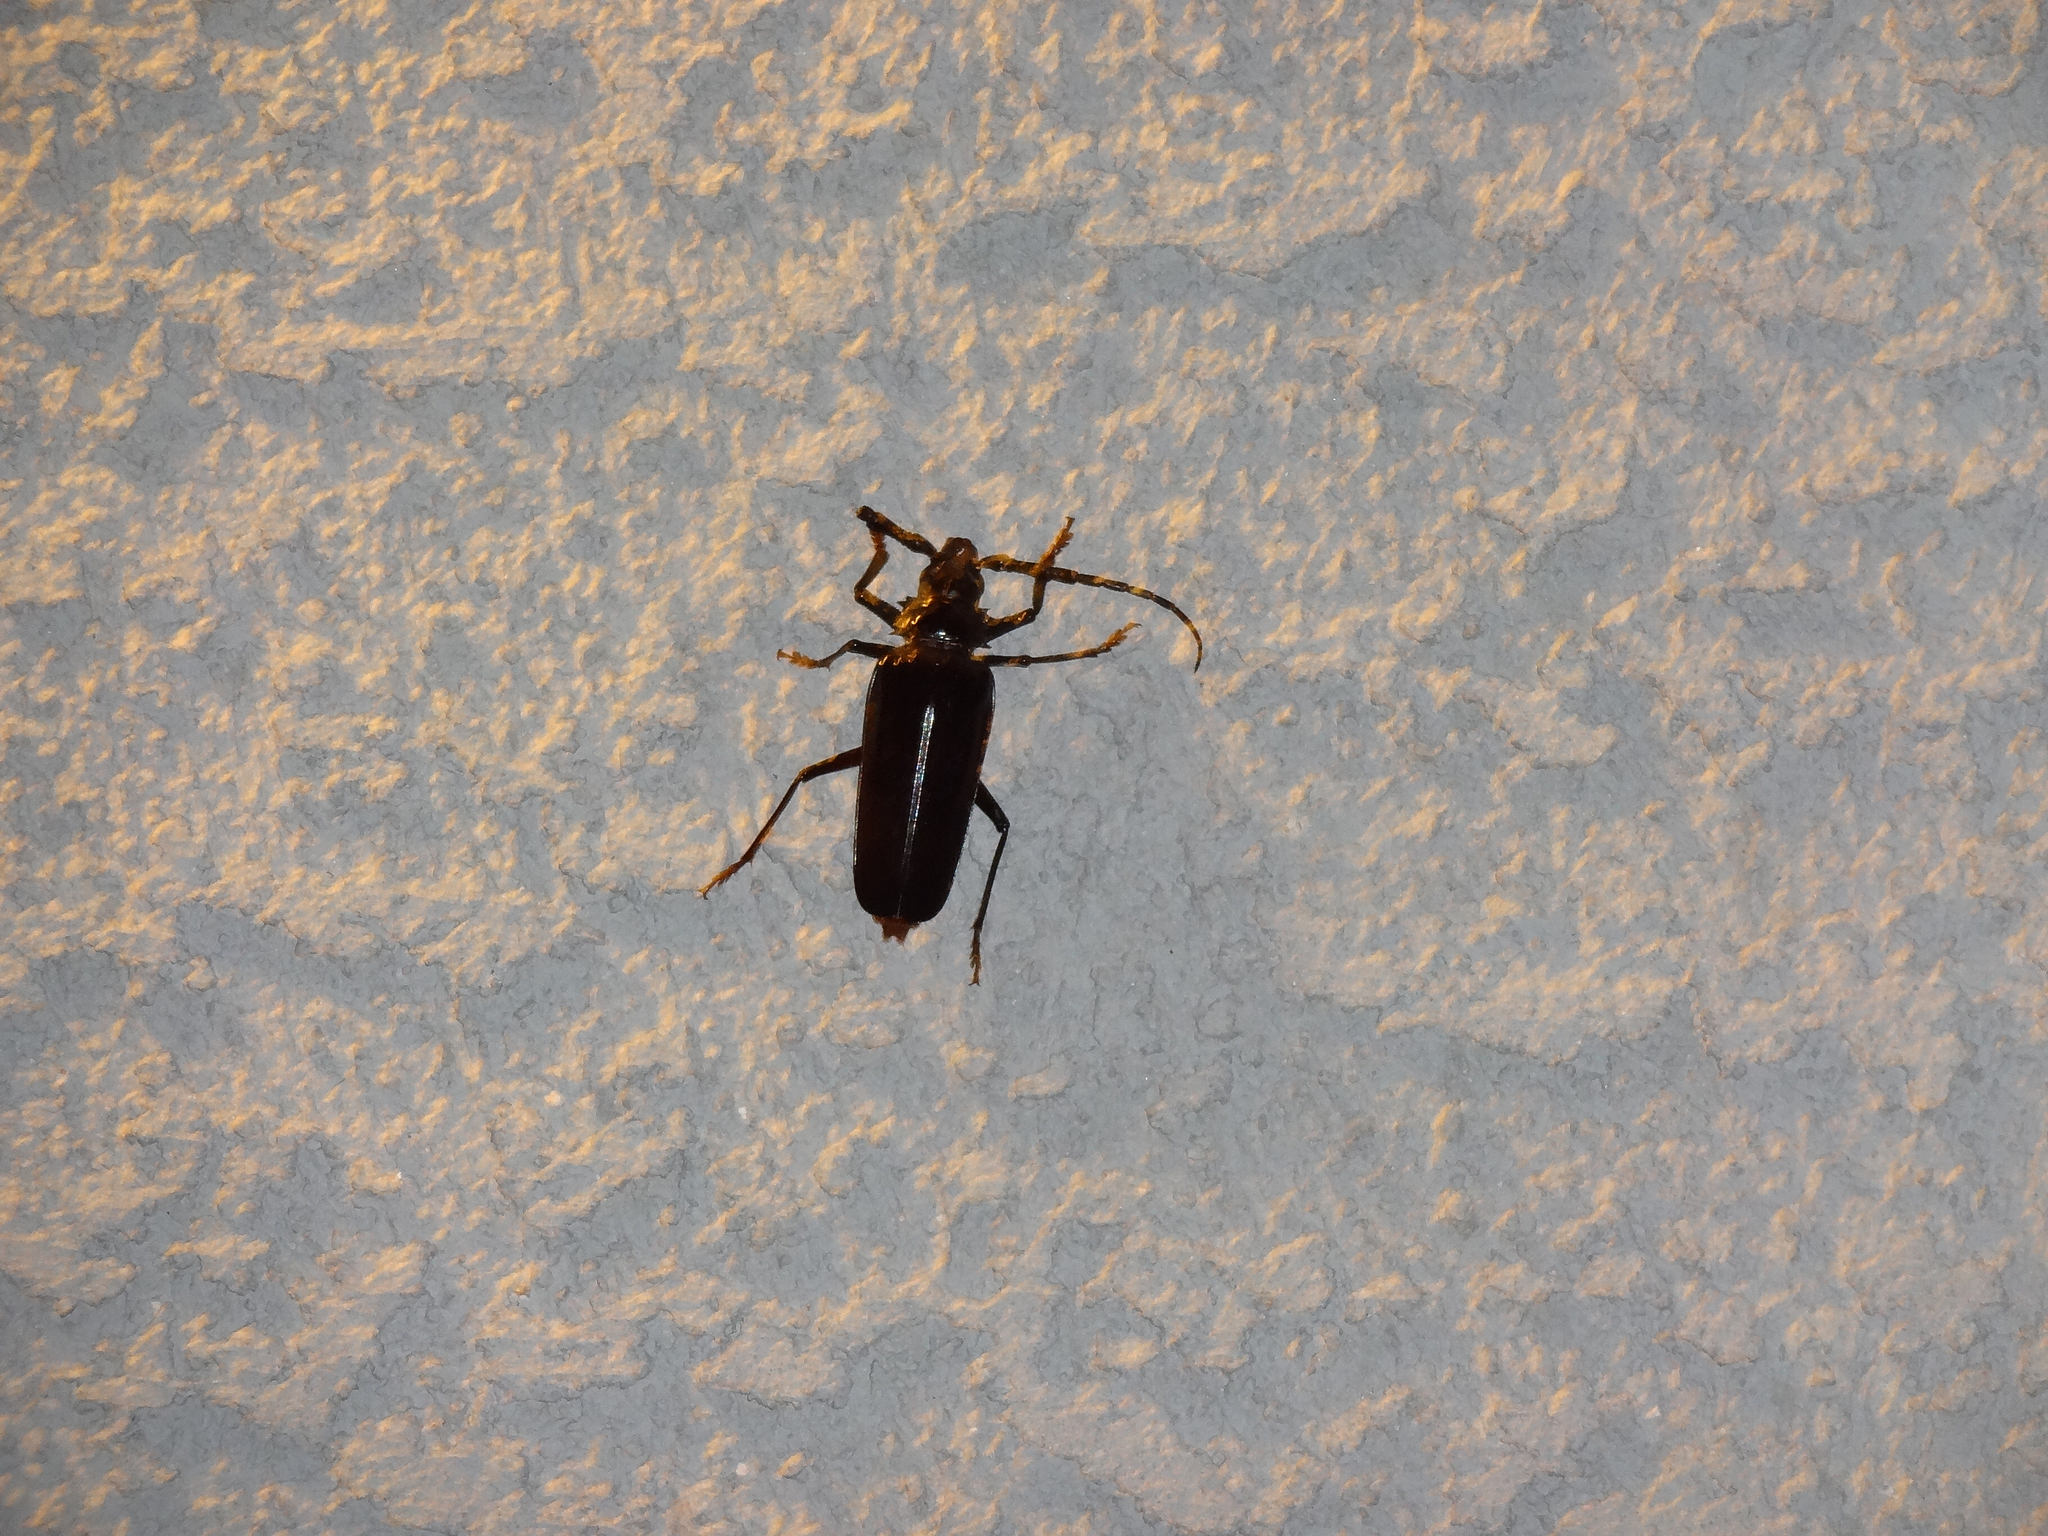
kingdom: Animalia
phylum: Arthropoda
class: Insecta
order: Coleoptera
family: Cerambycidae
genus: Derobrachus
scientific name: Derobrachus hovorei
